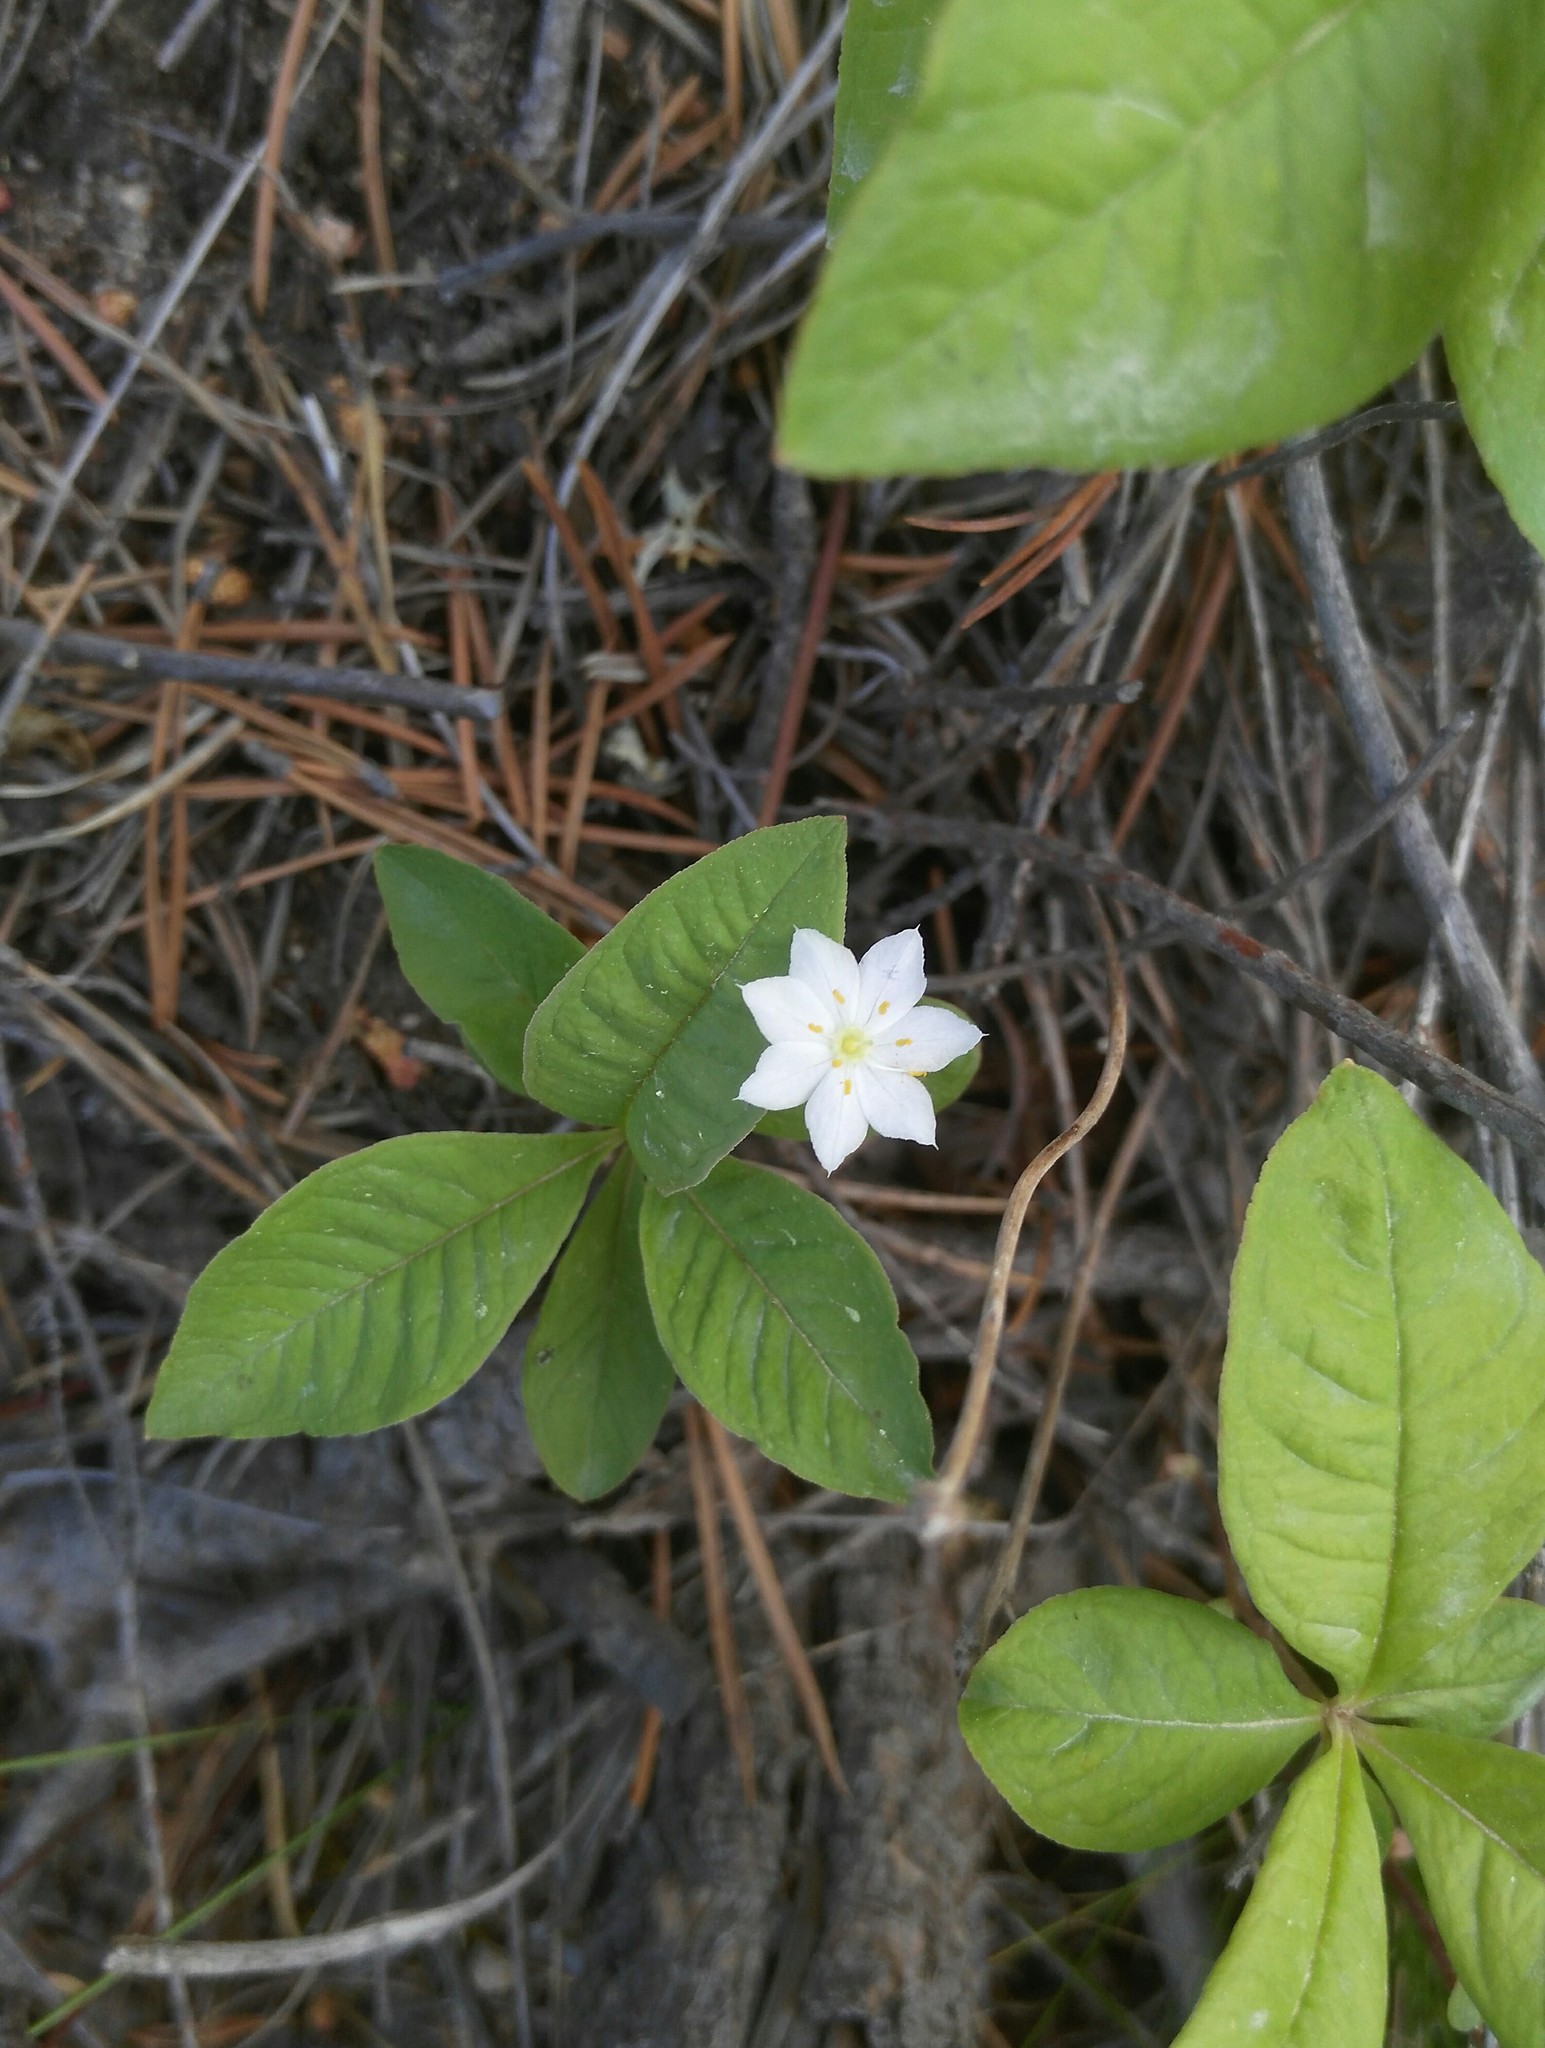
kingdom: Plantae
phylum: Tracheophyta
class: Magnoliopsida
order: Ericales
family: Primulaceae
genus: Lysimachia
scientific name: Lysimachia europaea
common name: Arctic starflower
